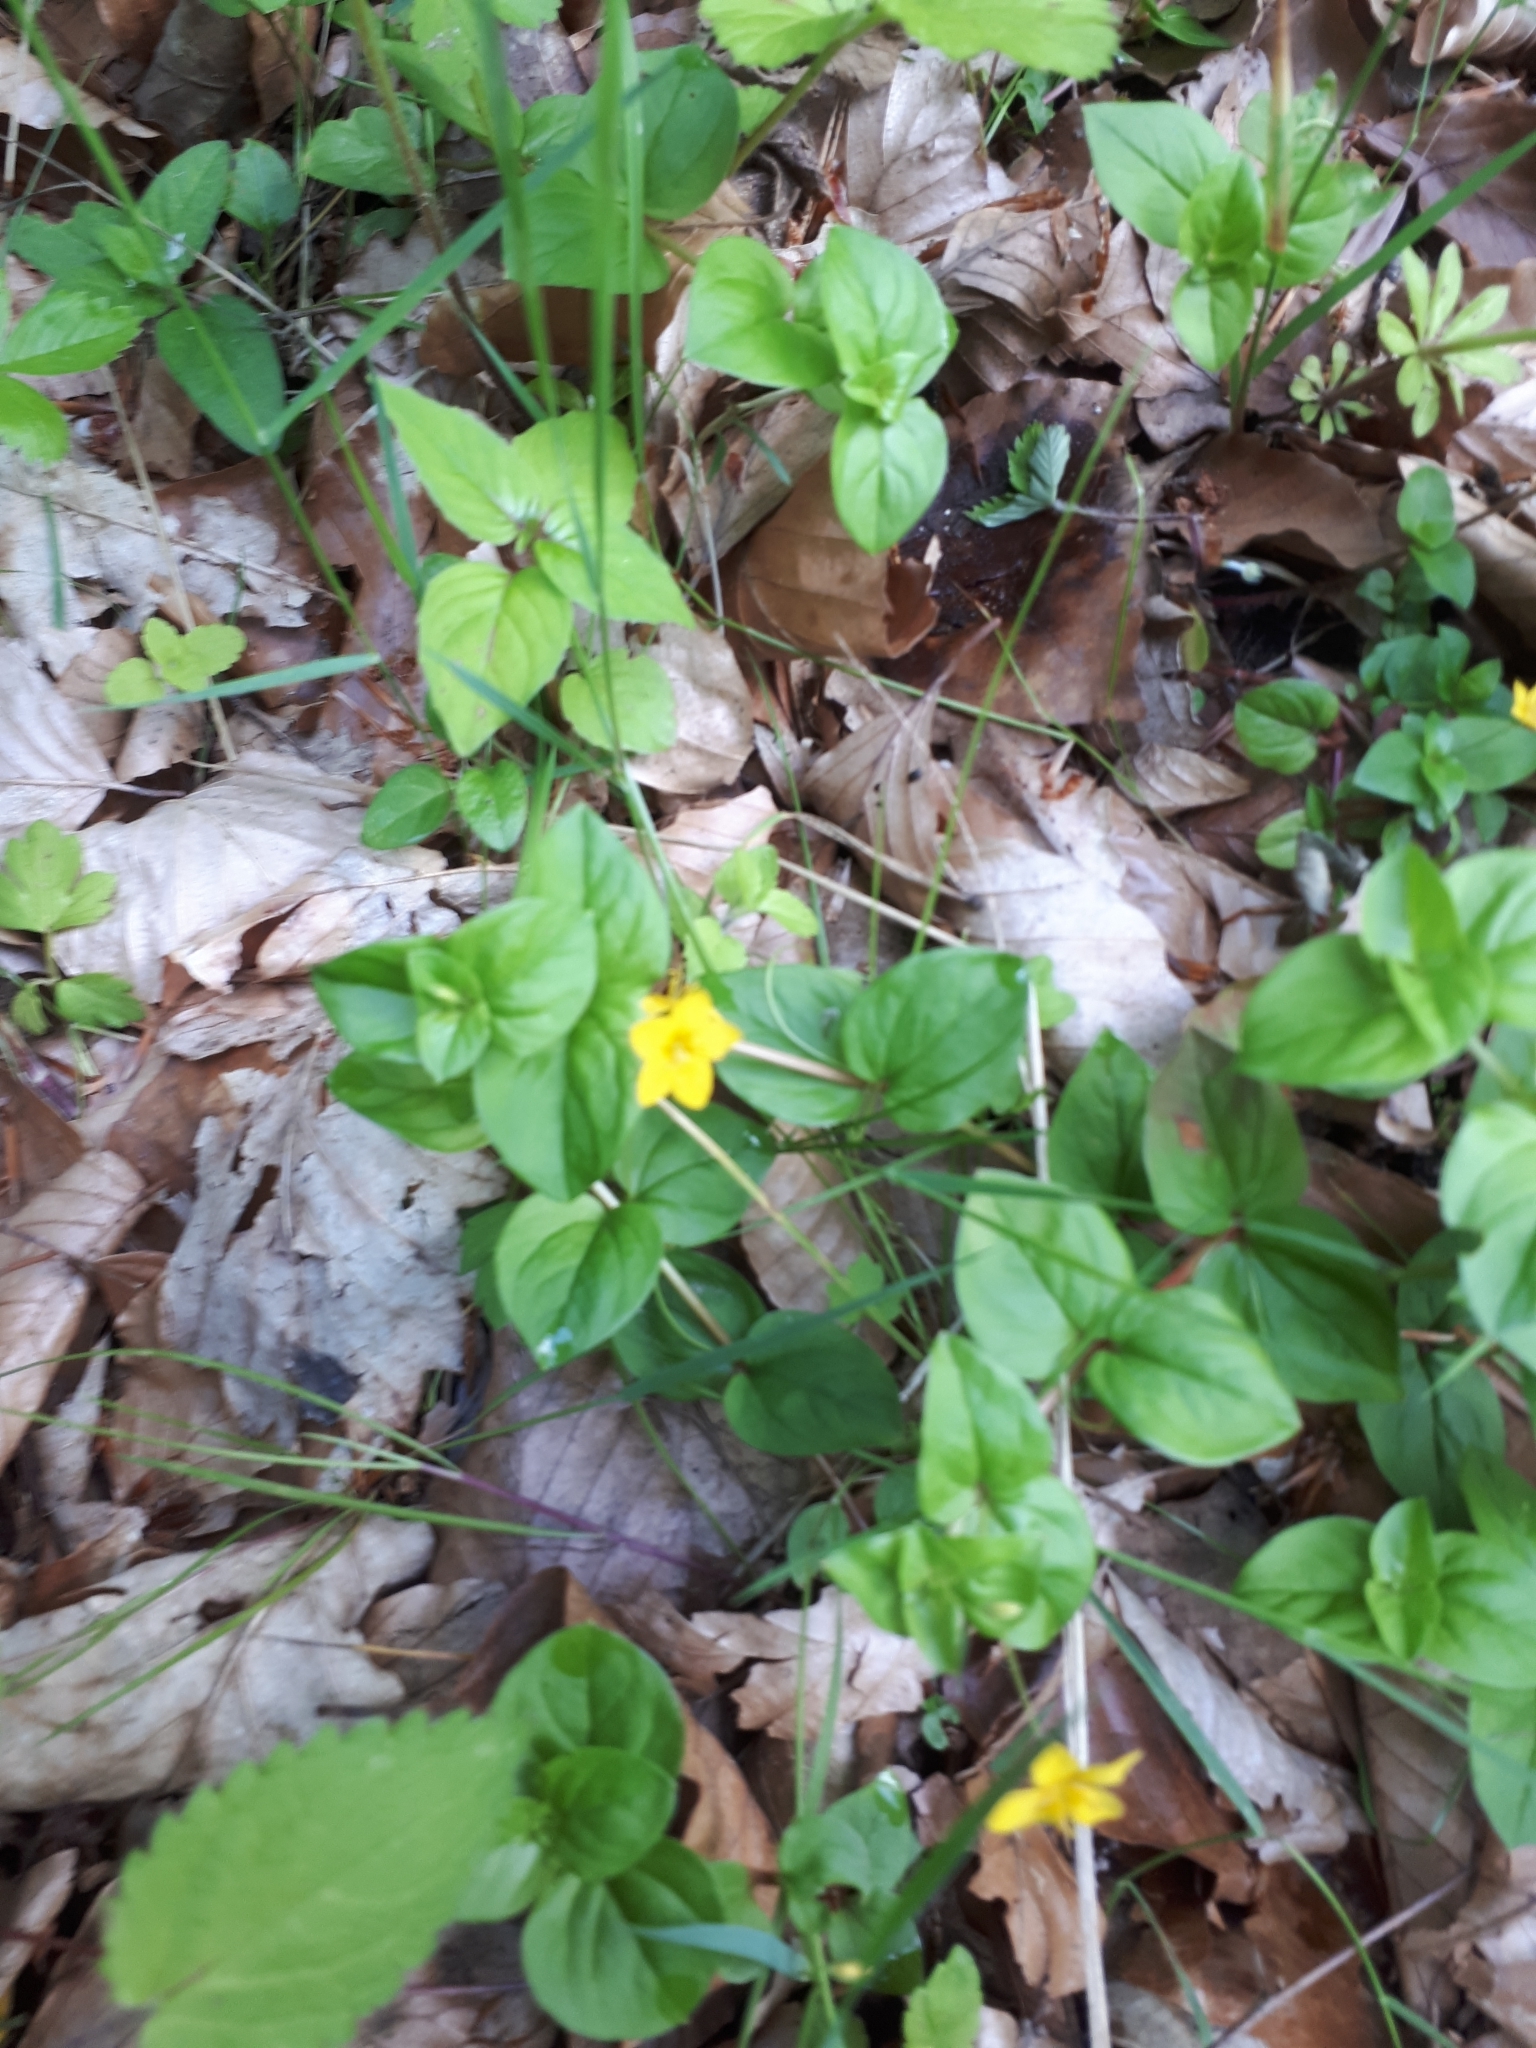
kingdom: Plantae
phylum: Tracheophyta
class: Magnoliopsida
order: Ericales
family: Primulaceae
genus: Lysimachia
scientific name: Lysimachia nemorum
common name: Yellow pimpernel
